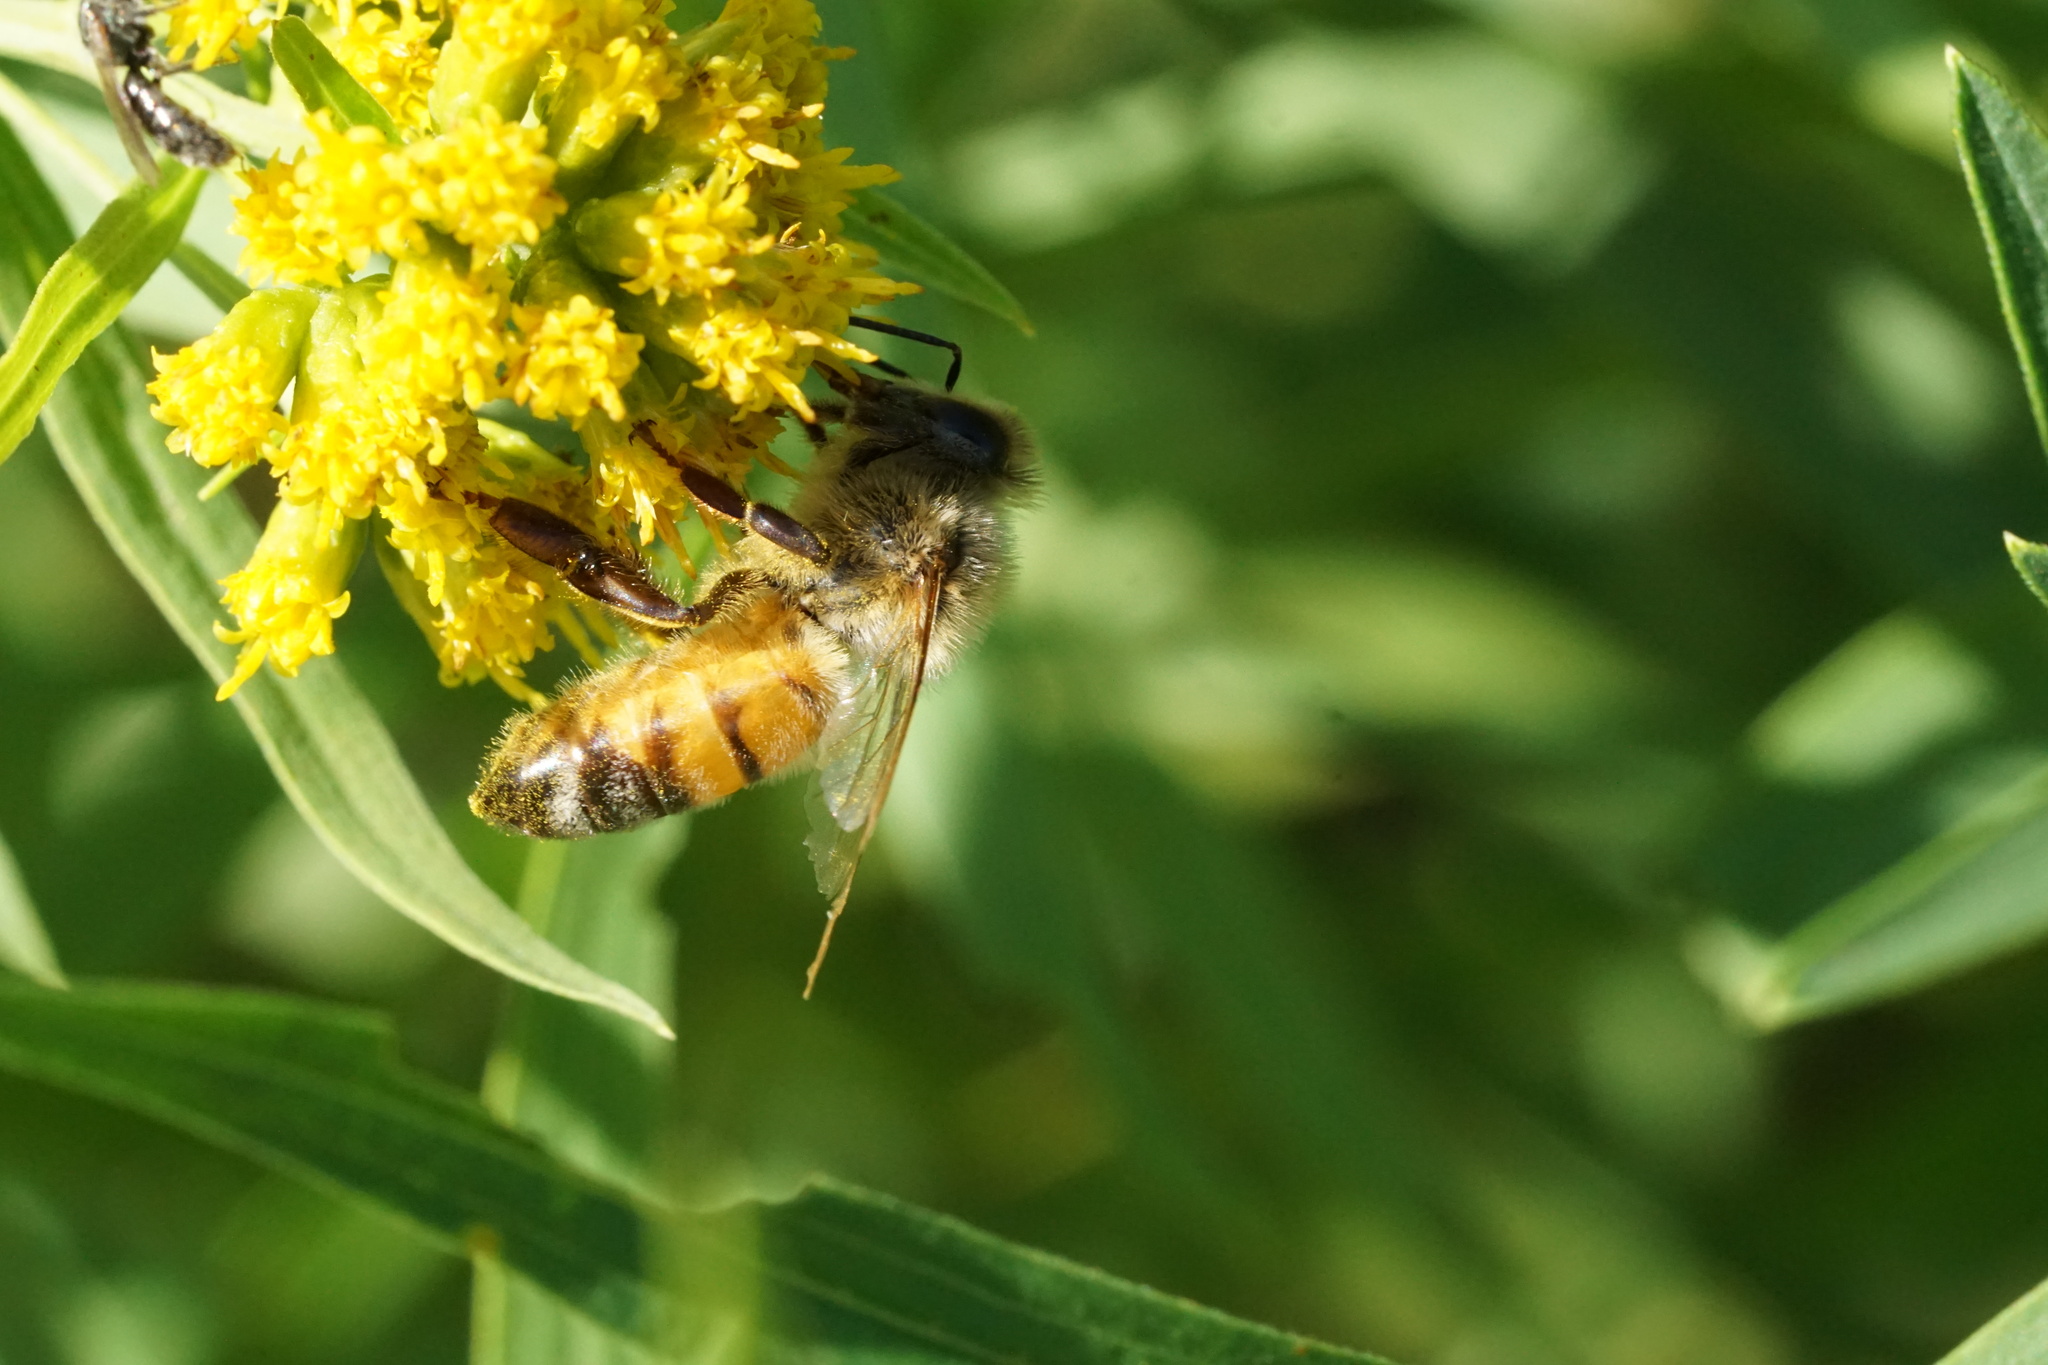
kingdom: Animalia
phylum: Arthropoda
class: Insecta
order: Hymenoptera
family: Apidae
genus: Apis
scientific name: Apis mellifera
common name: Honey bee
